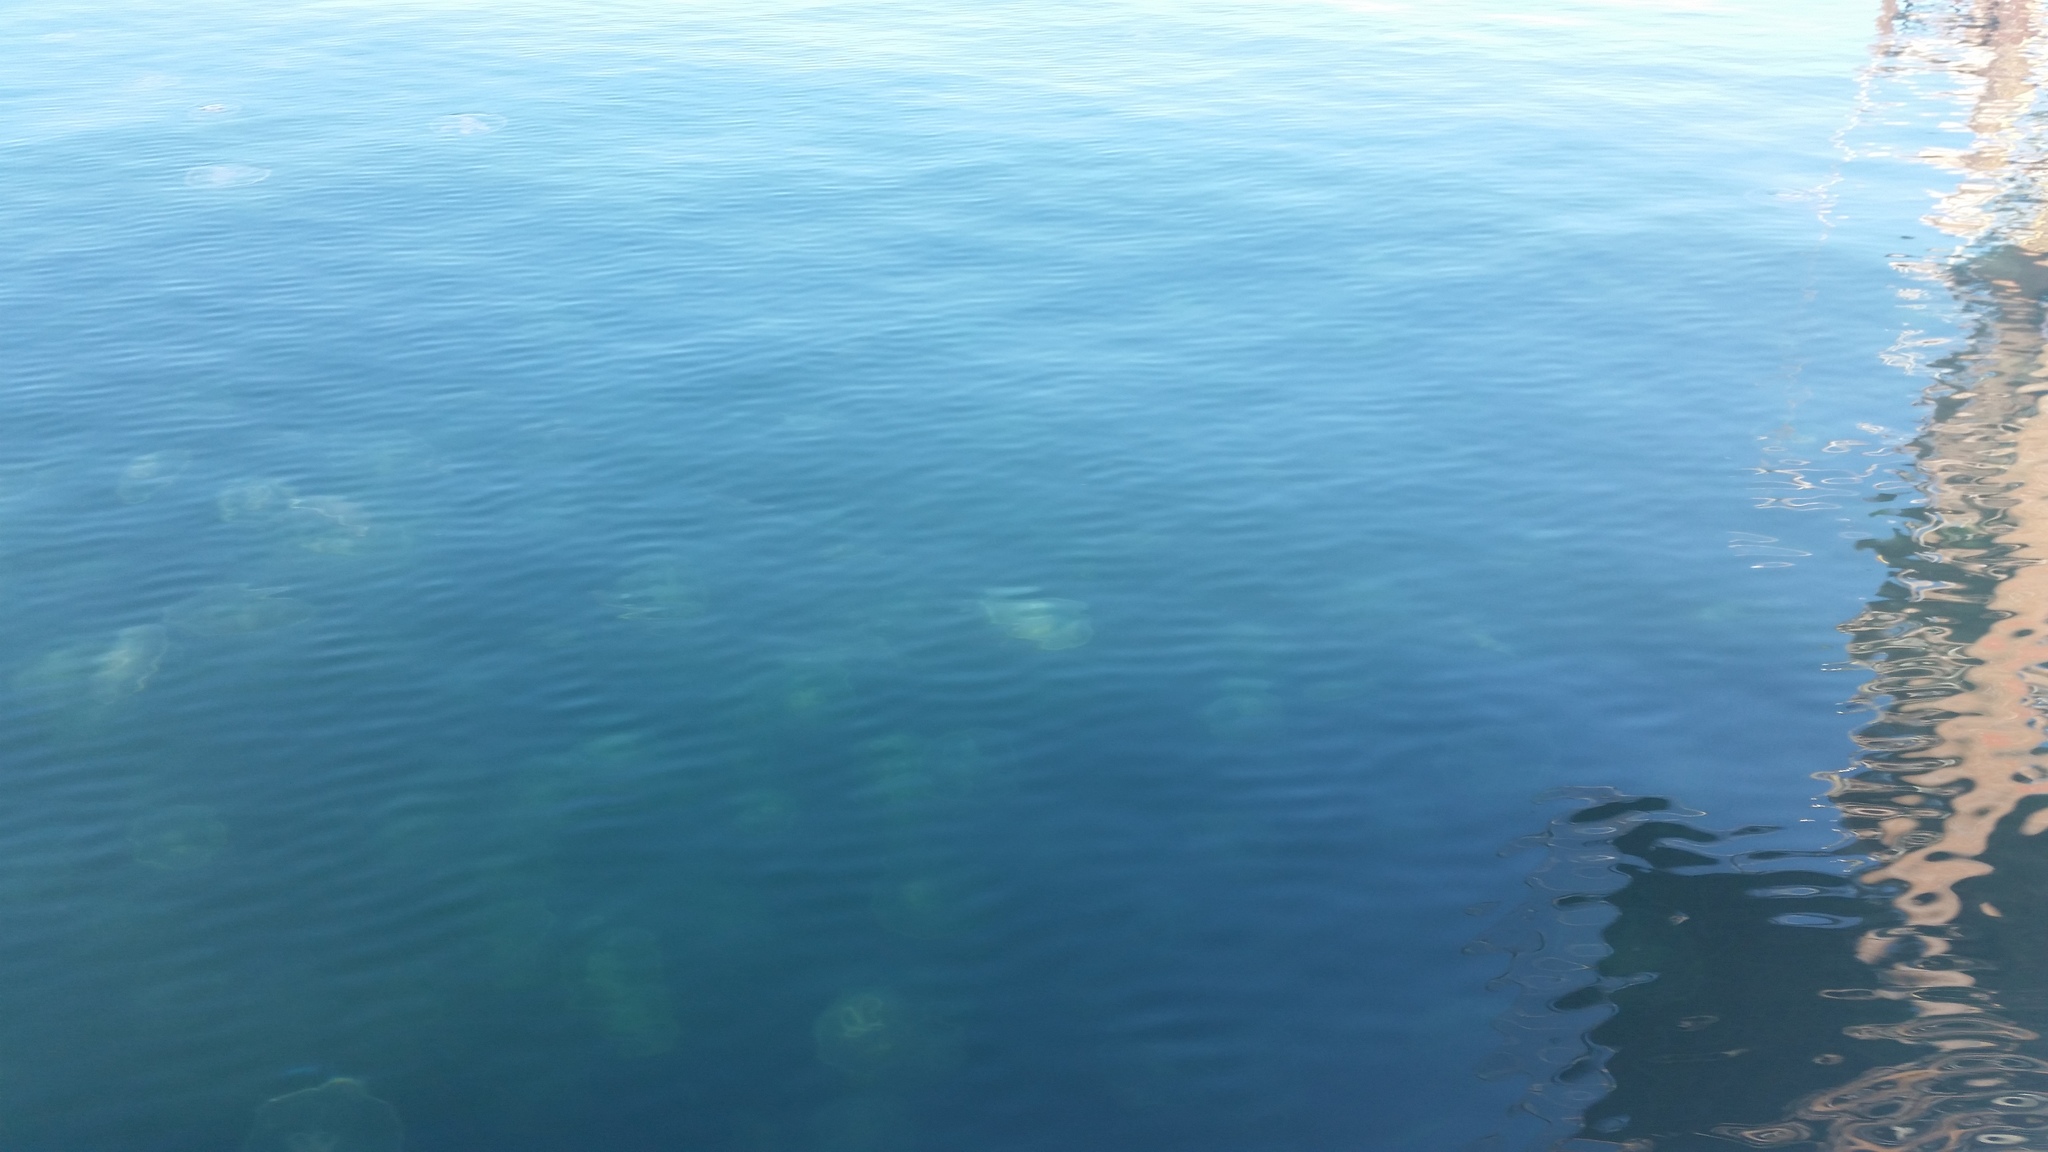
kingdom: Animalia
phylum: Cnidaria
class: Scyphozoa
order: Semaeostomeae
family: Ulmaridae
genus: Aurelia
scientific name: Aurelia marginalis
